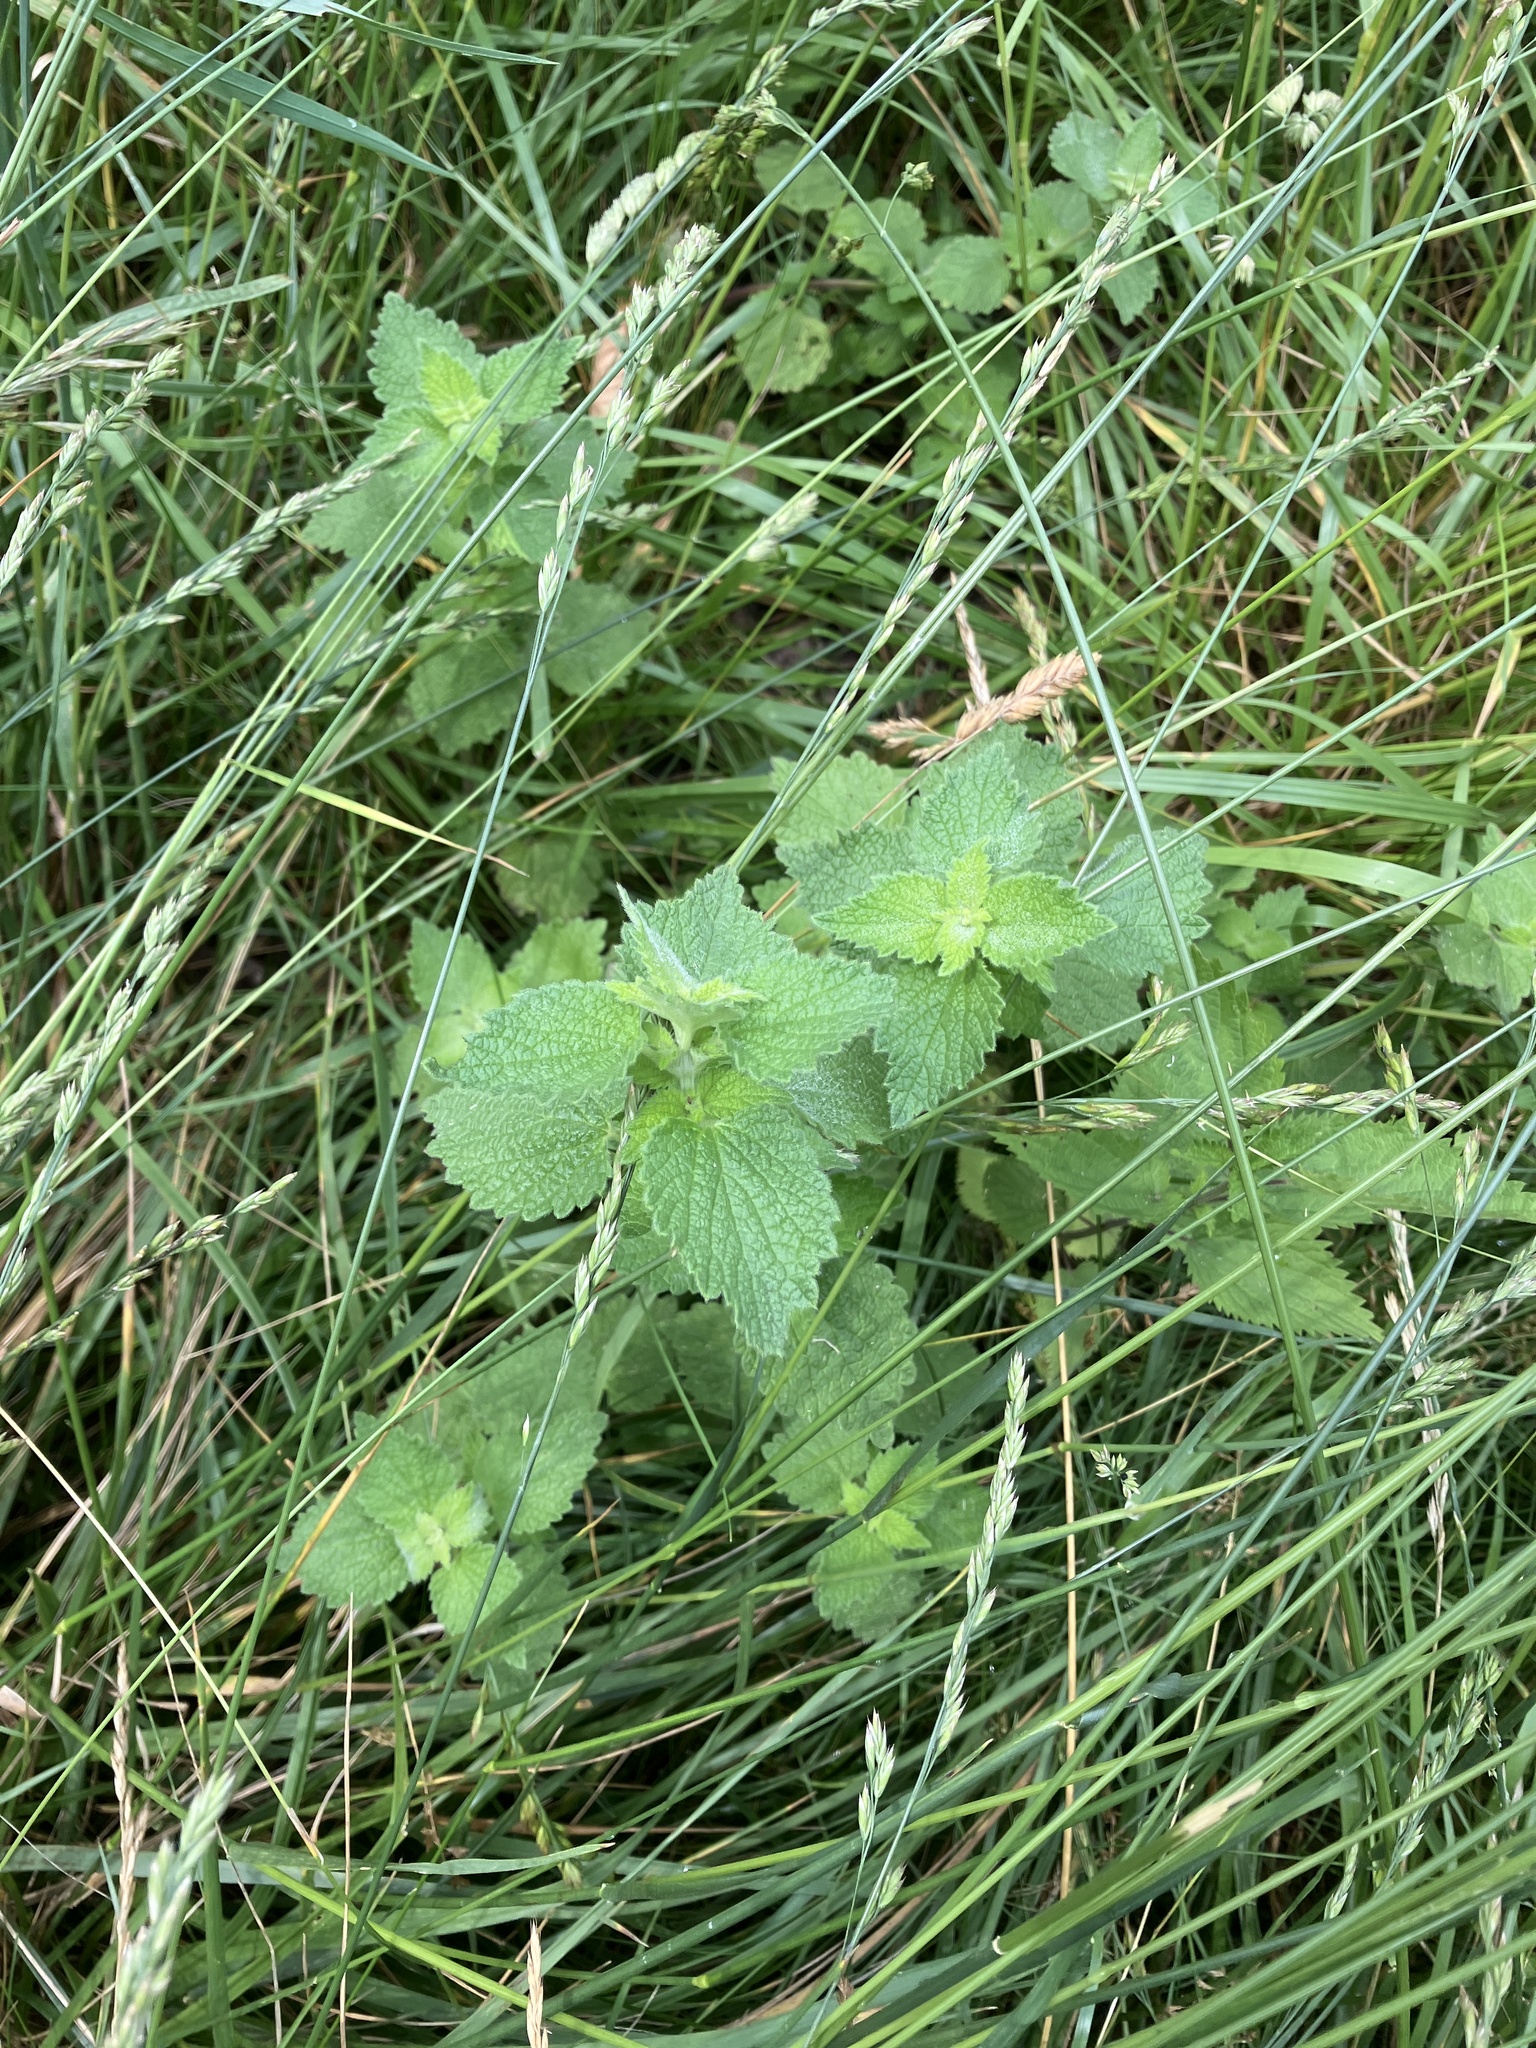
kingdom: Plantae
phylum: Tracheophyta
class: Magnoliopsida
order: Lamiales
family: Lamiaceae
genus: Ballota
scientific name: Ballota nigra
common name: Black horehound
